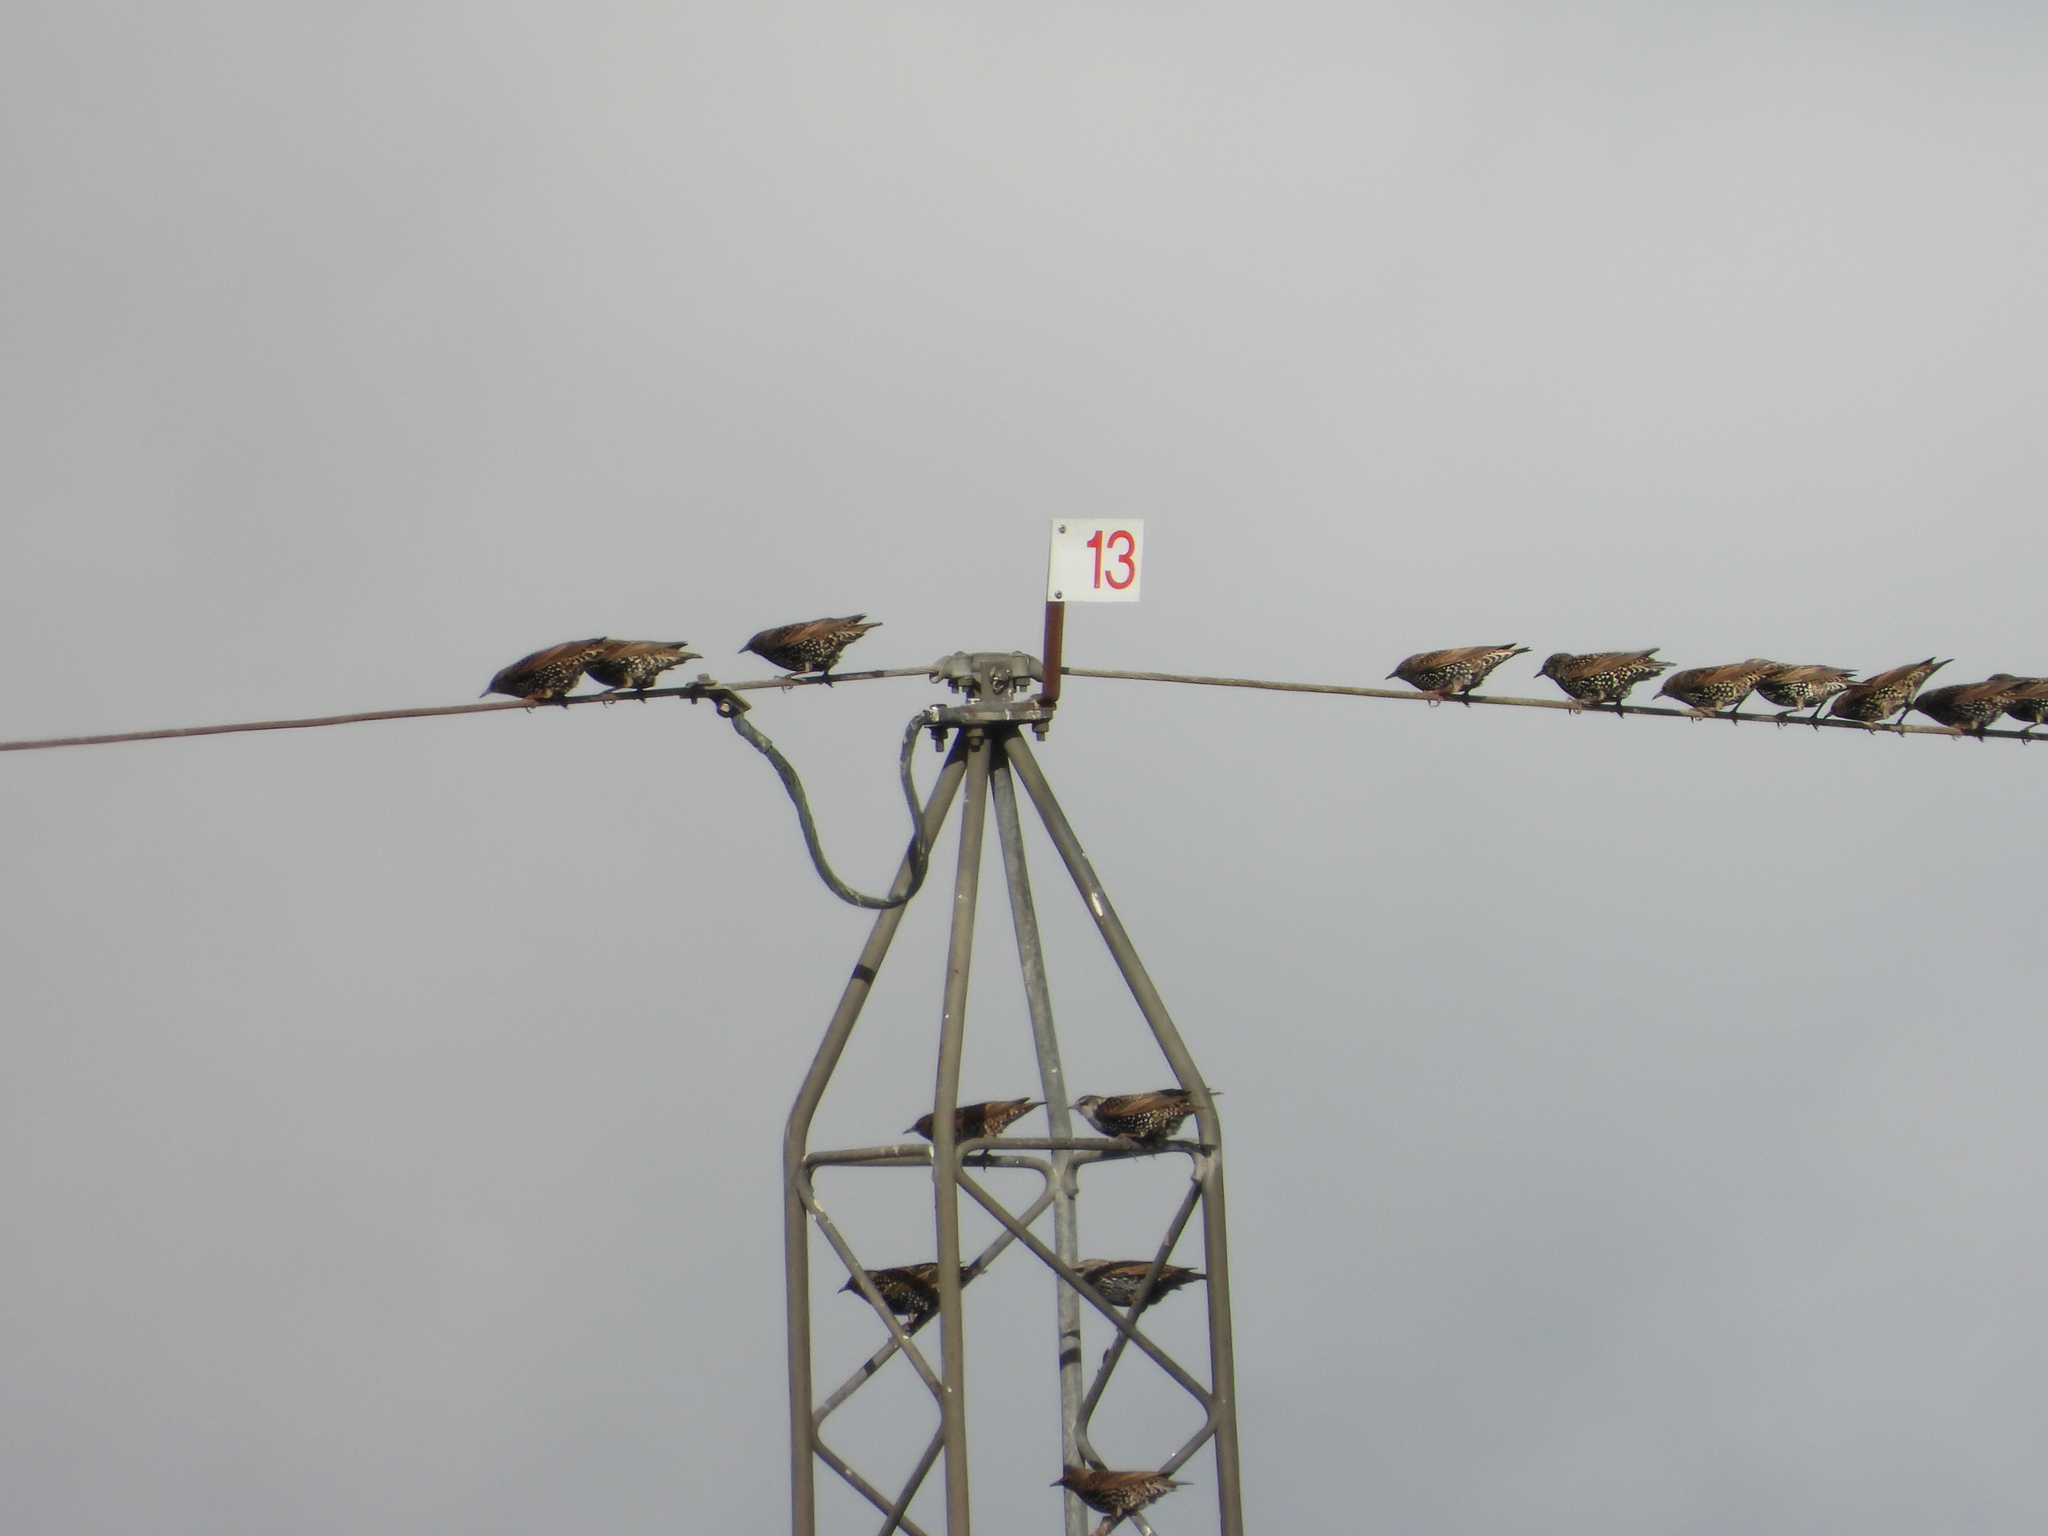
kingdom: Animalia
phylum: Chordata
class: Aves
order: Passeriformes
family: Sturnidae
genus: Sturnus
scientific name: Sturnus vulgaris
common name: Common starling
